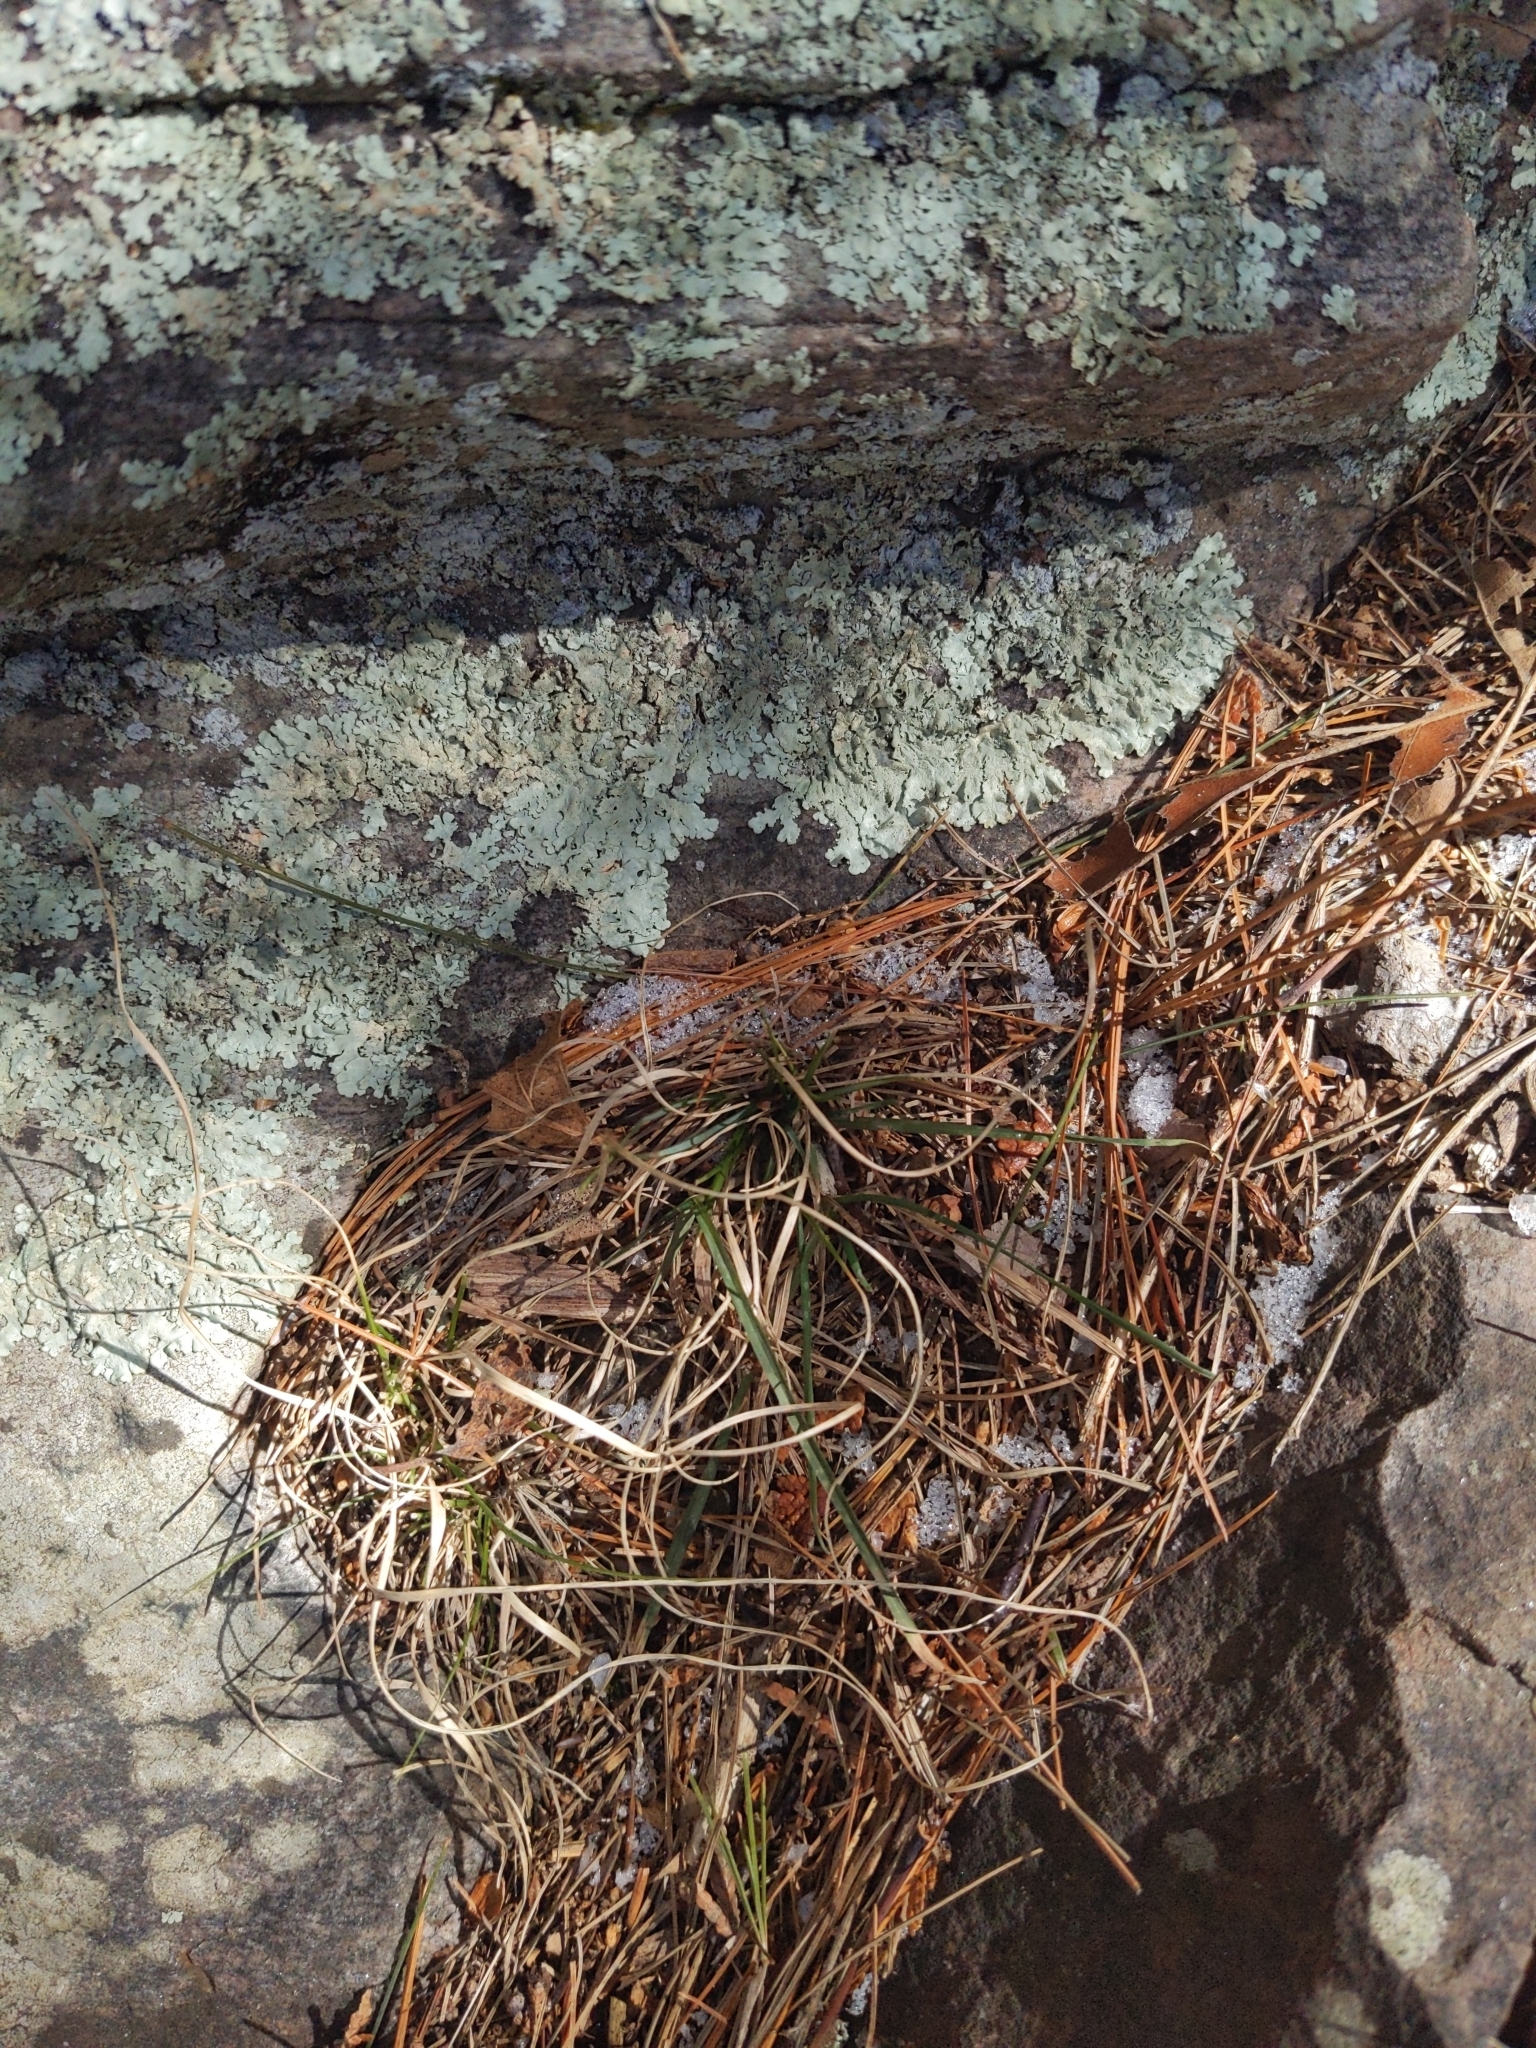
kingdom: Plantae
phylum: Tracheophyta
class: Liliopsida
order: Poales
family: Poaceae
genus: Danthonia
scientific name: Danthonia spicata
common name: Common wild oatgrass
